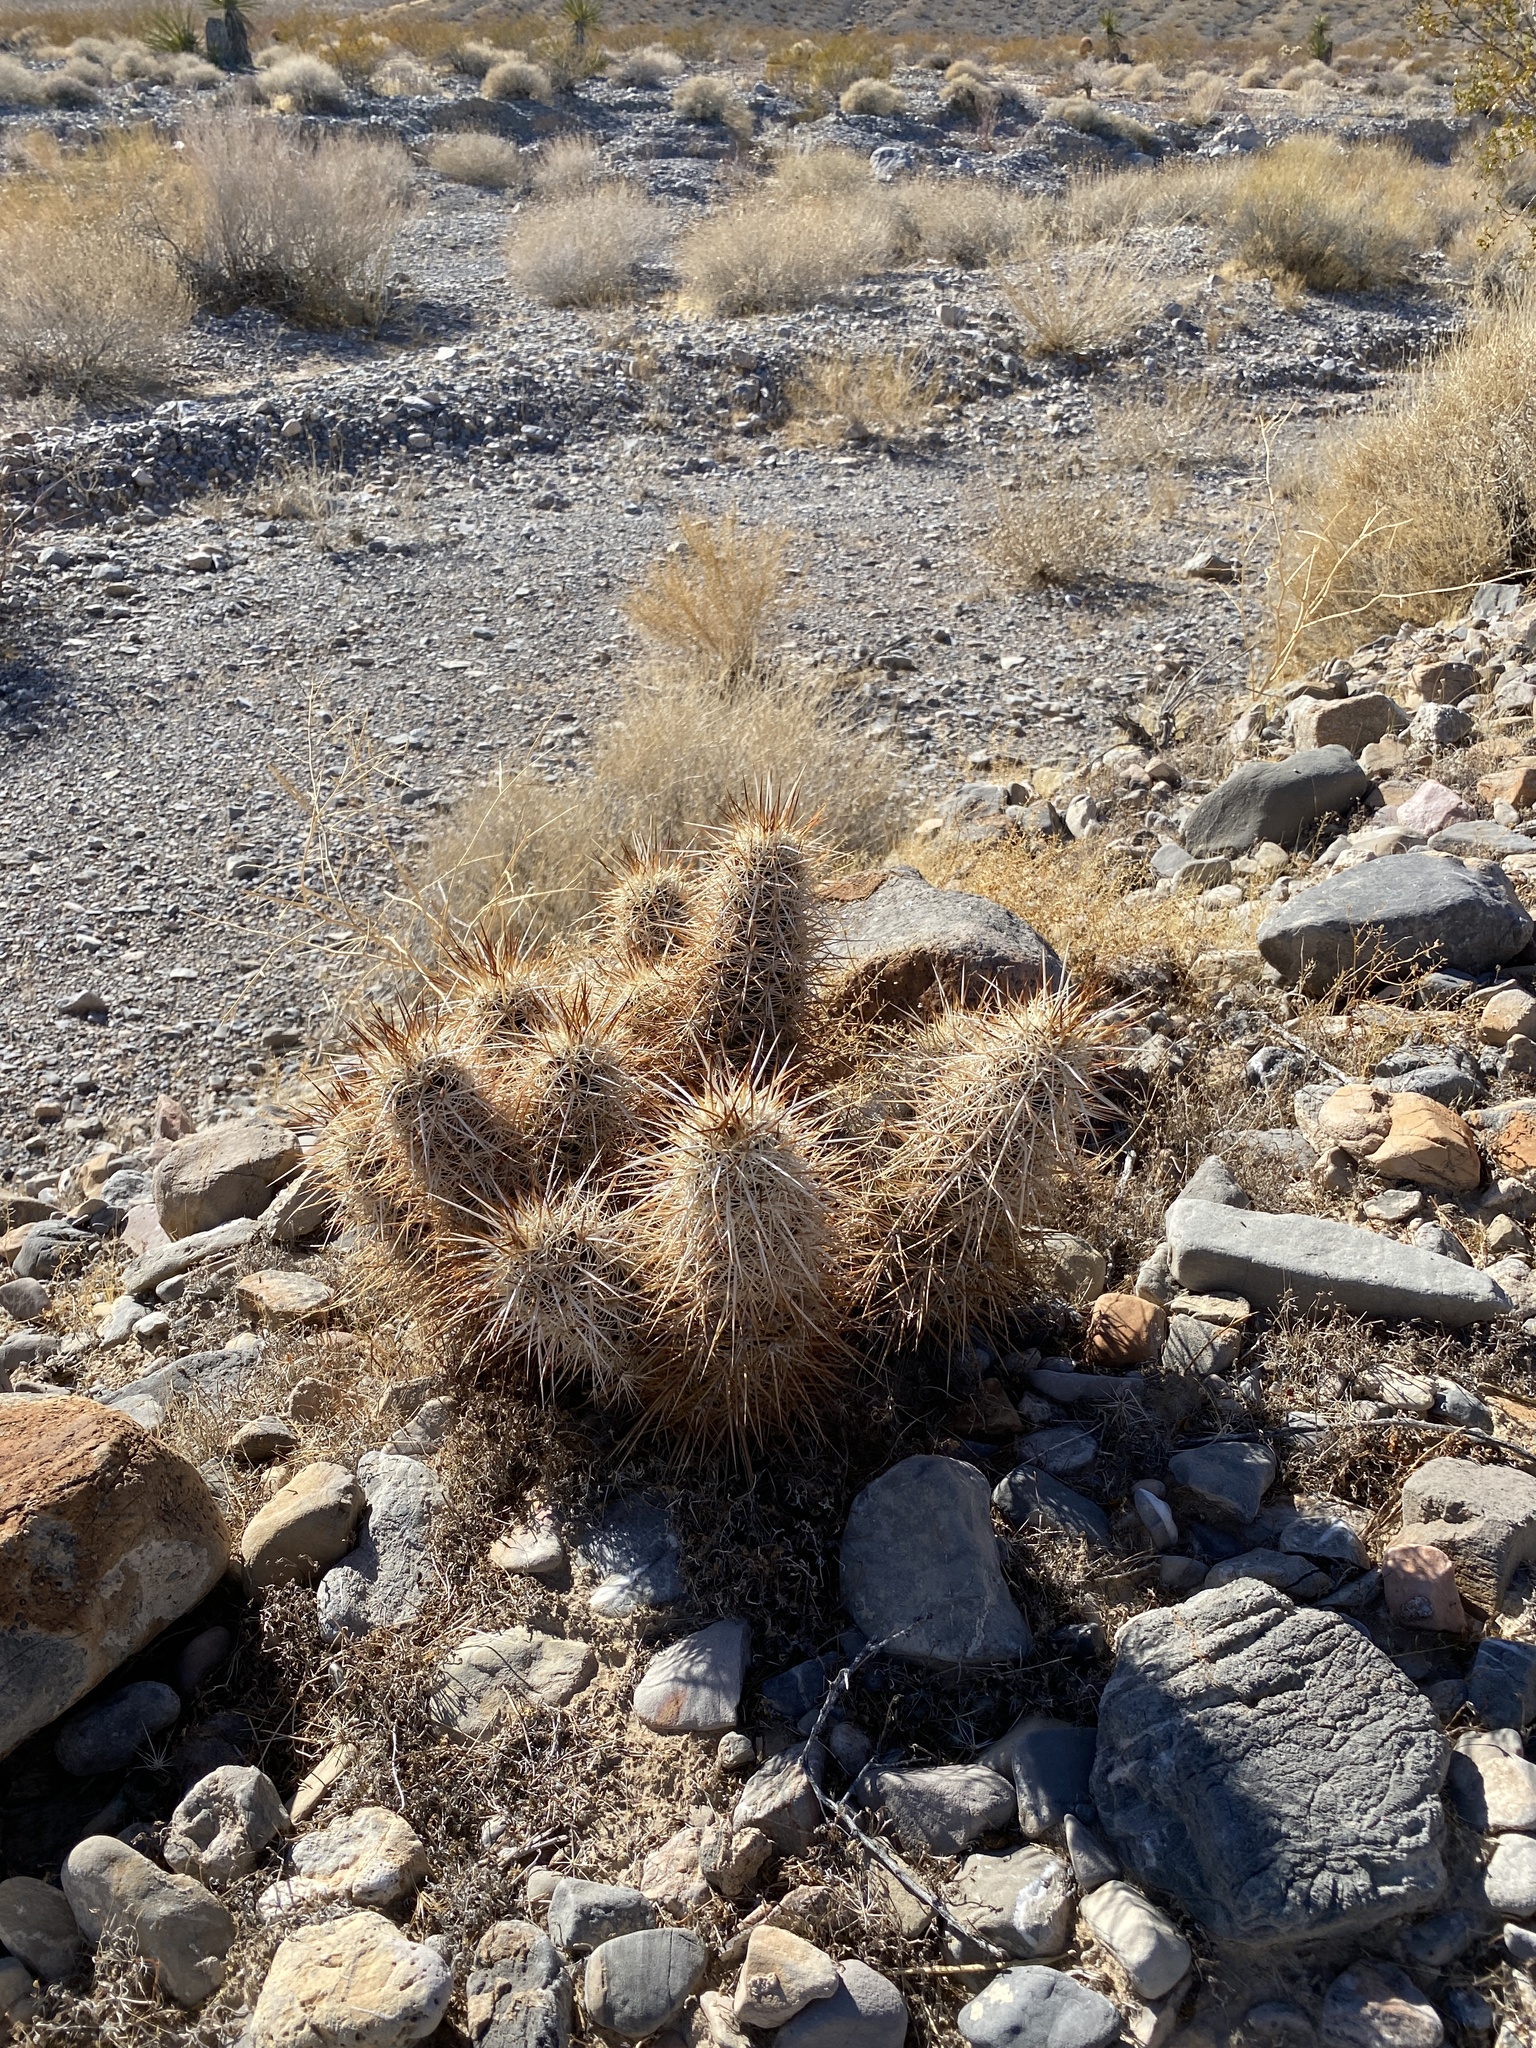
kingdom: Plantae
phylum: Tracheophyta
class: Magnoliopsida
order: Caryophyllales
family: Cactaceae
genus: Echinocereus
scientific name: Echinocereus engelmannii
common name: Engelmann's hedgehog cactus
